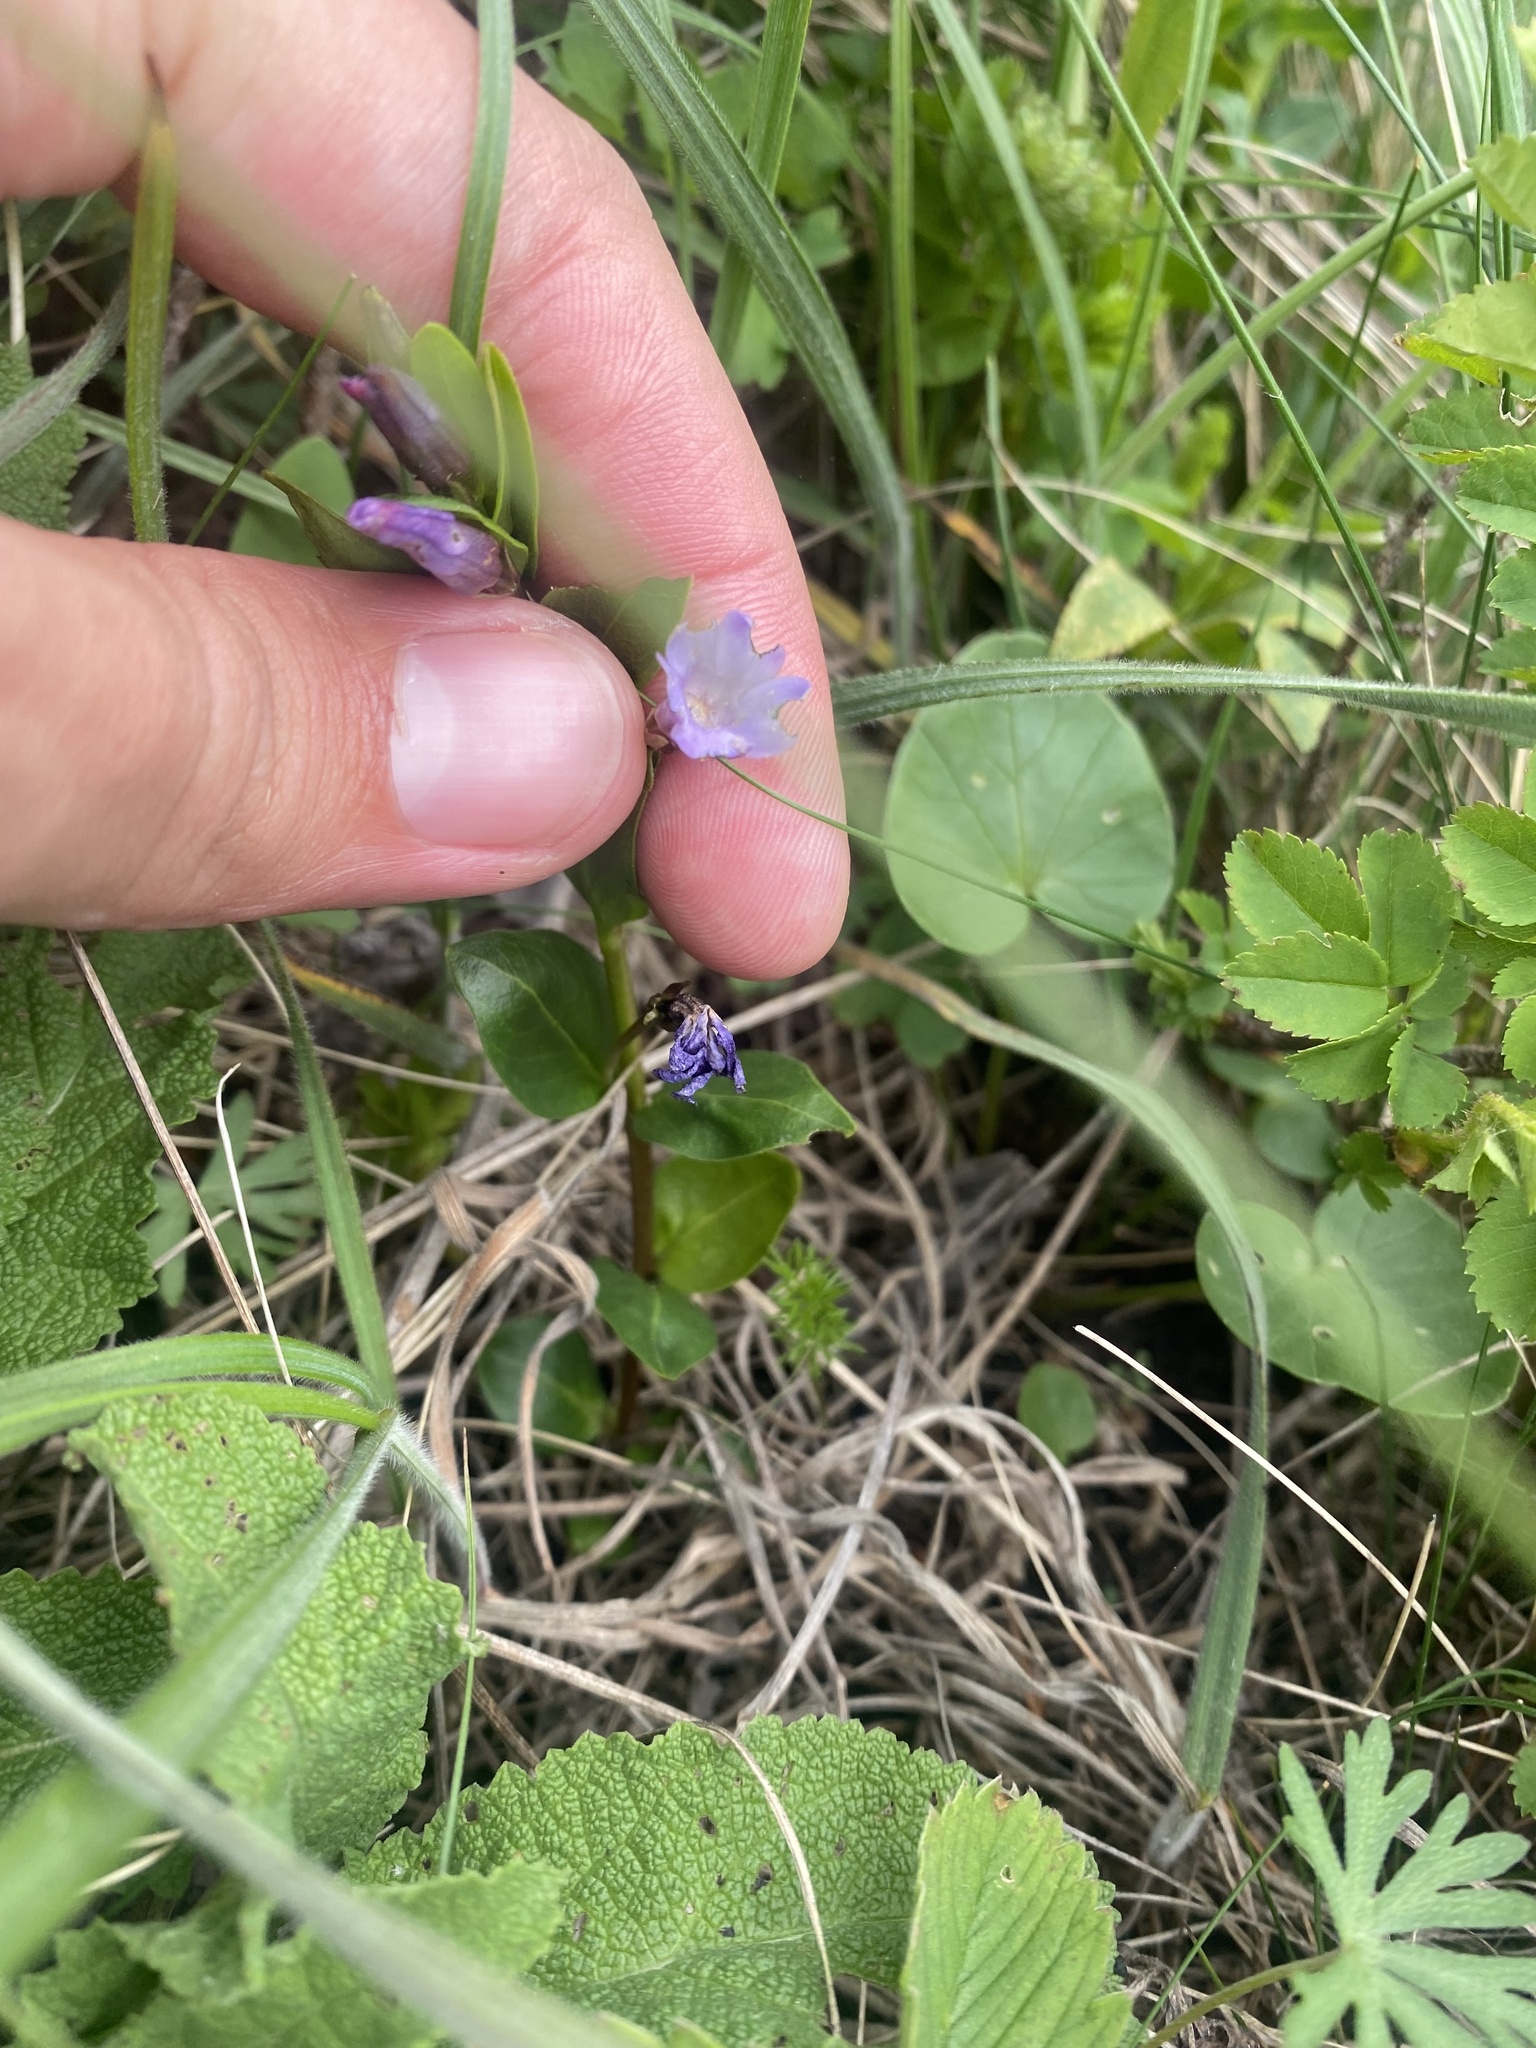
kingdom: Plantae
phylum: Tracheophyta
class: Magnoliopsida
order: Gentianales
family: Apocynaceae
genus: Vinca
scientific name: Vinca herbacea
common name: Herbaceous periwinkle
